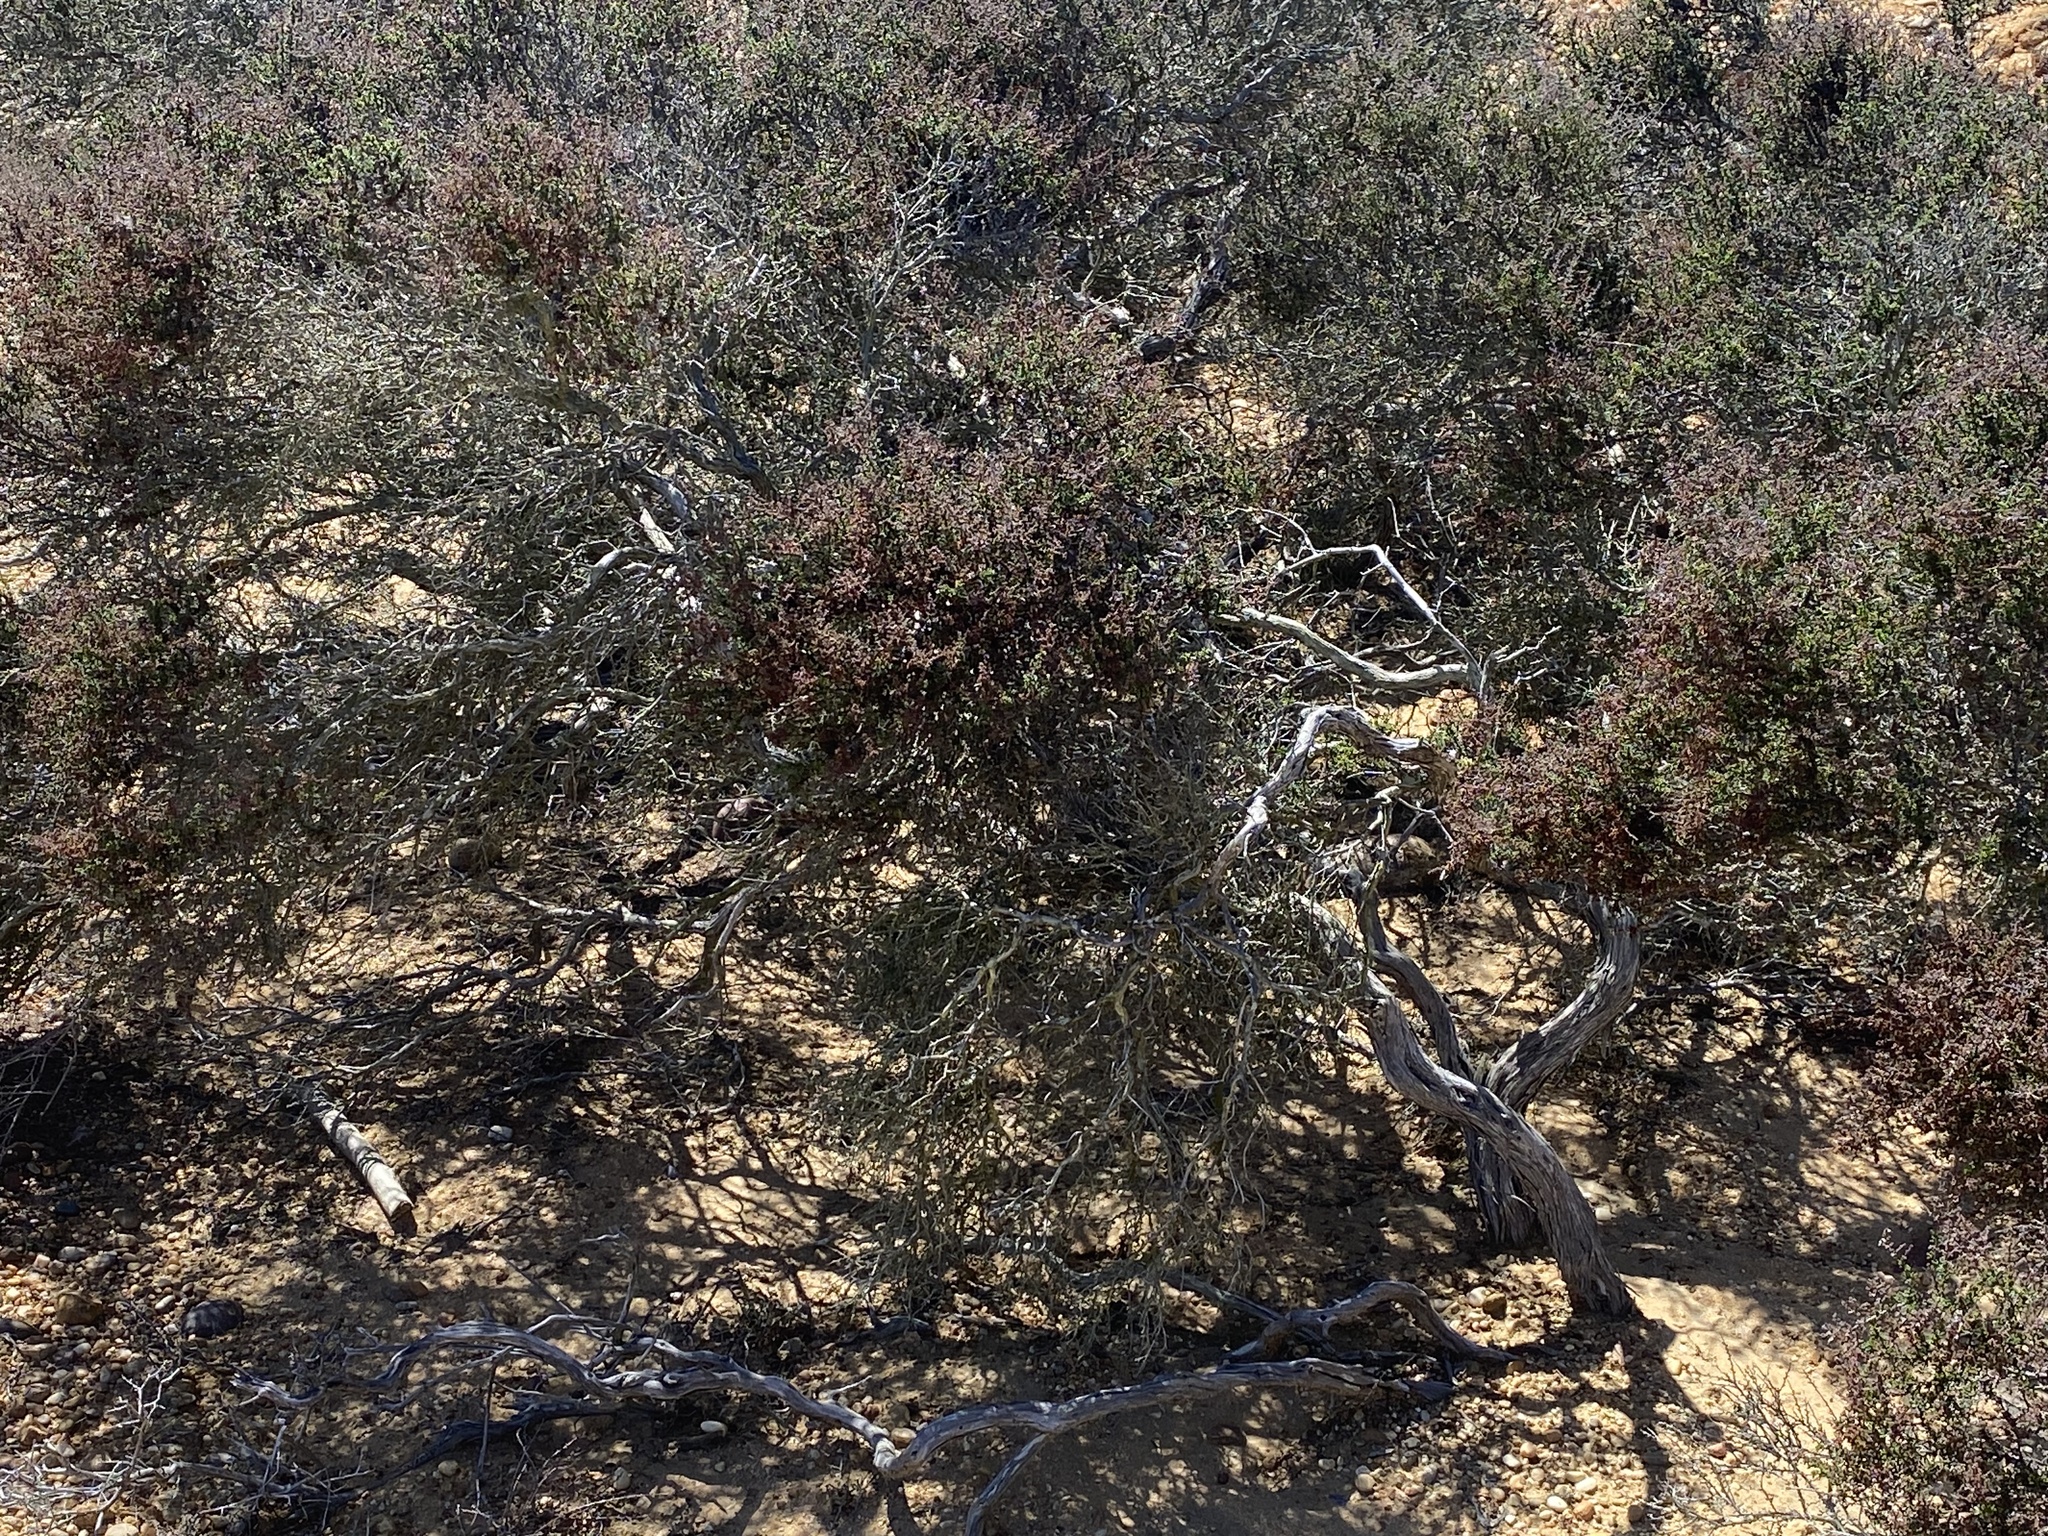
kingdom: Plantae
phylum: Tracheophyta
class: Magnoliopsida
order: Rosales
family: Rosaceae
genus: Adenostoma
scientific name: Adenostoma fasciculatum
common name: Chamise
